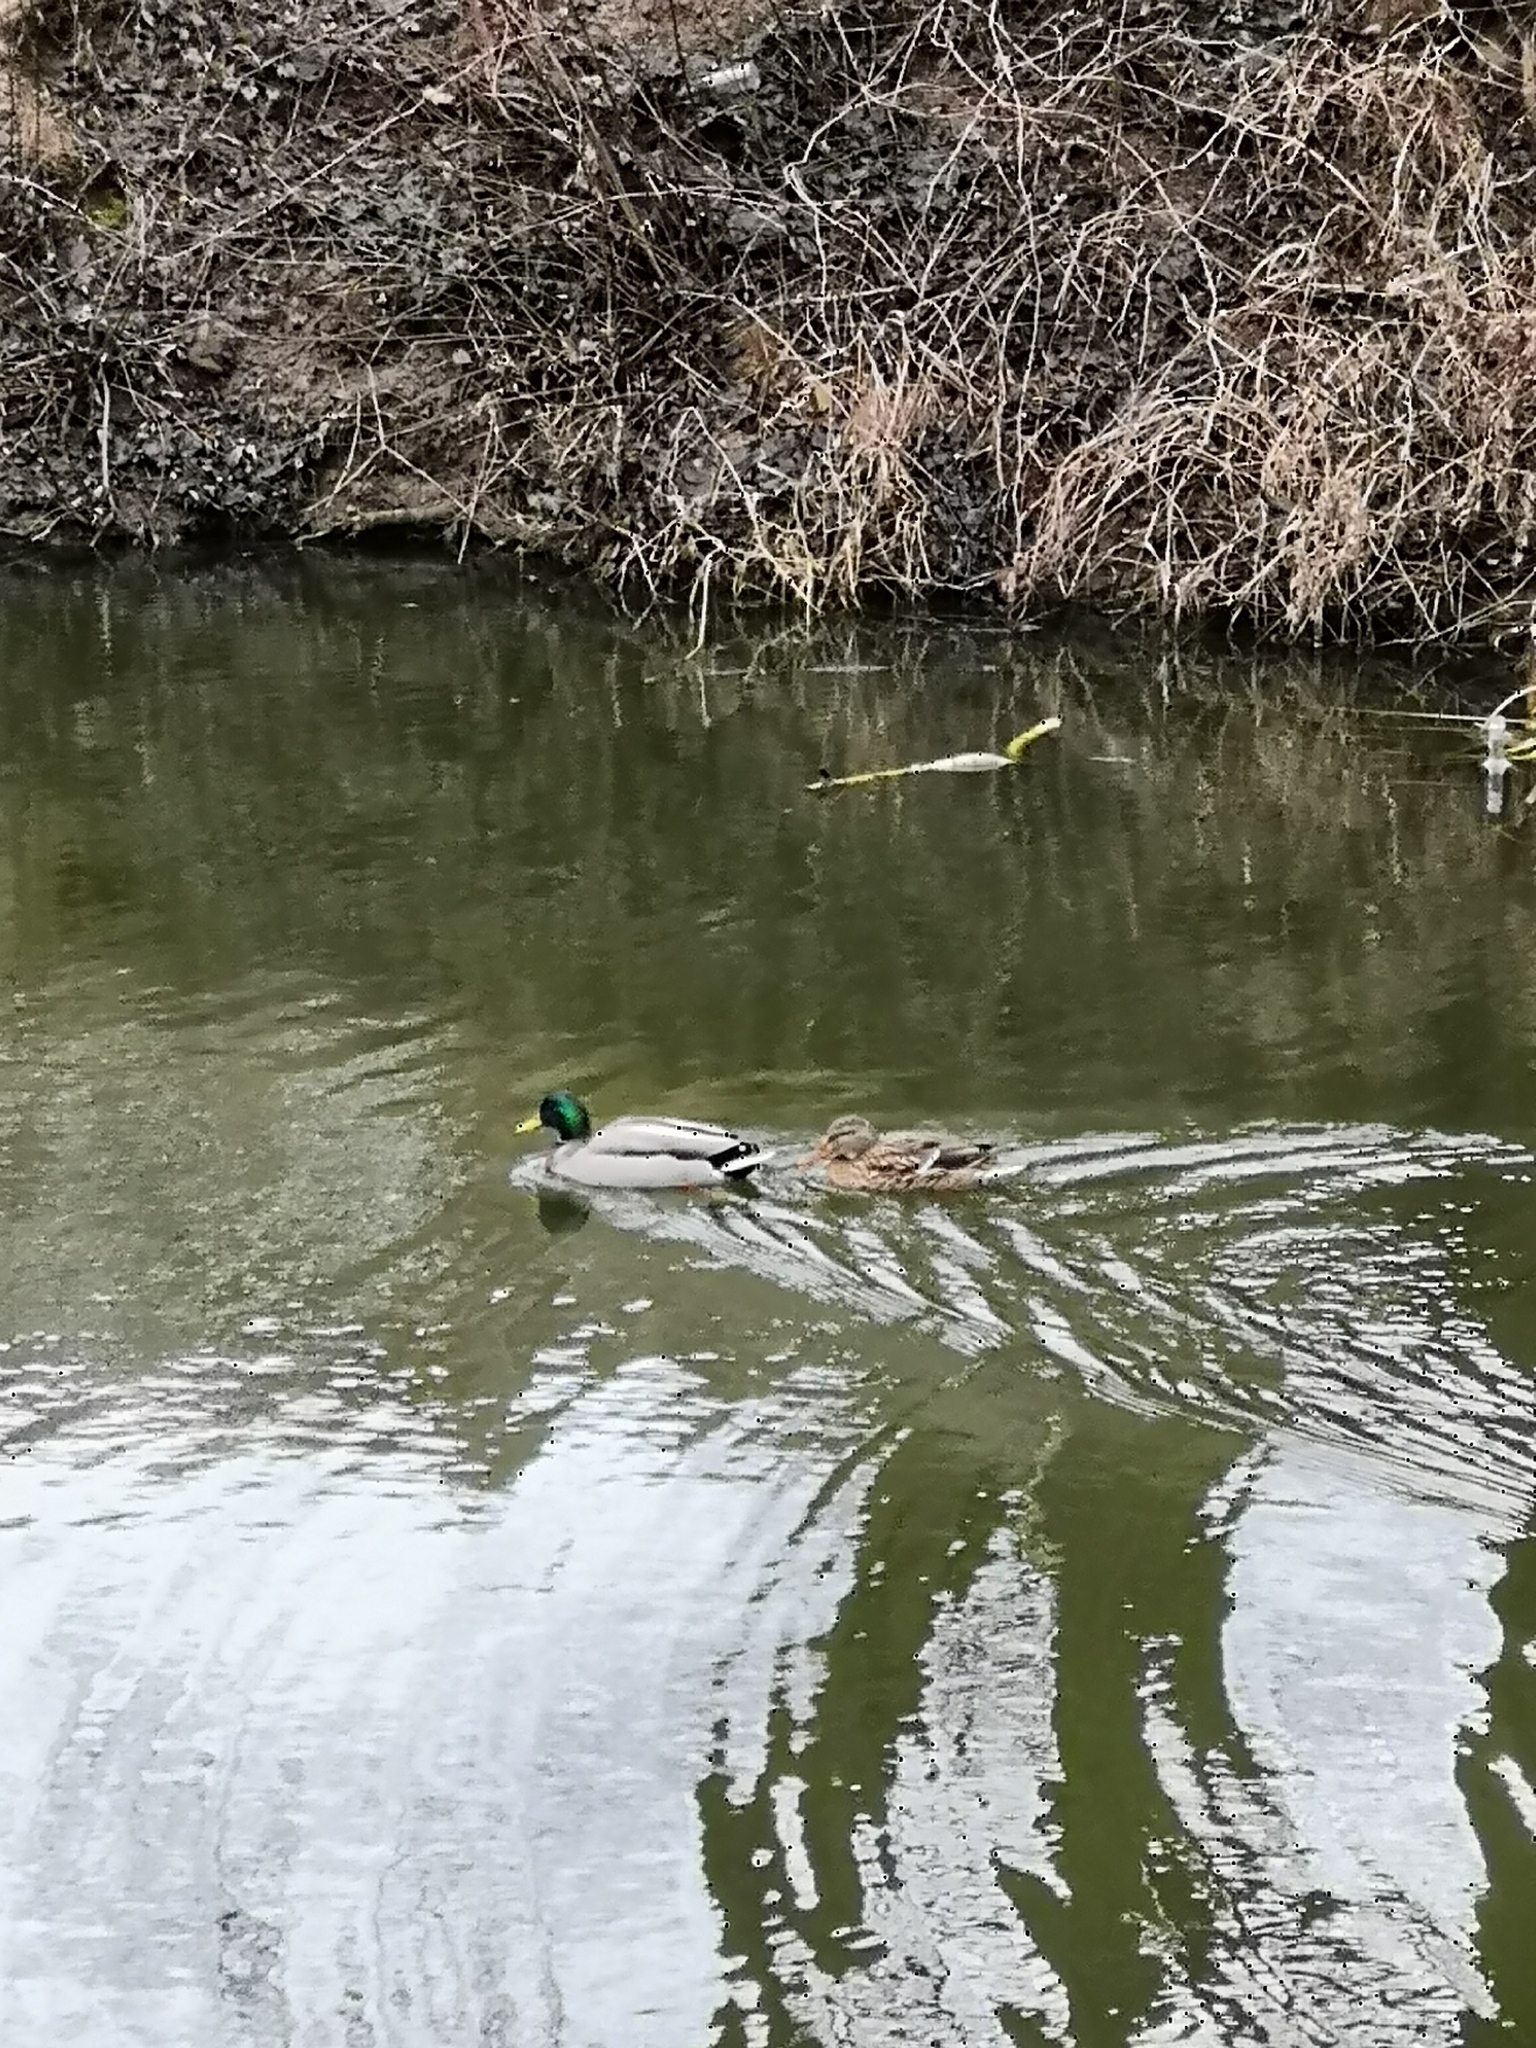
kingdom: Animalia
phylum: Chordata
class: Aves
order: Anseriformes
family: Anatidae
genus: Anas
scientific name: Anas platyrhynchos
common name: Mallard
